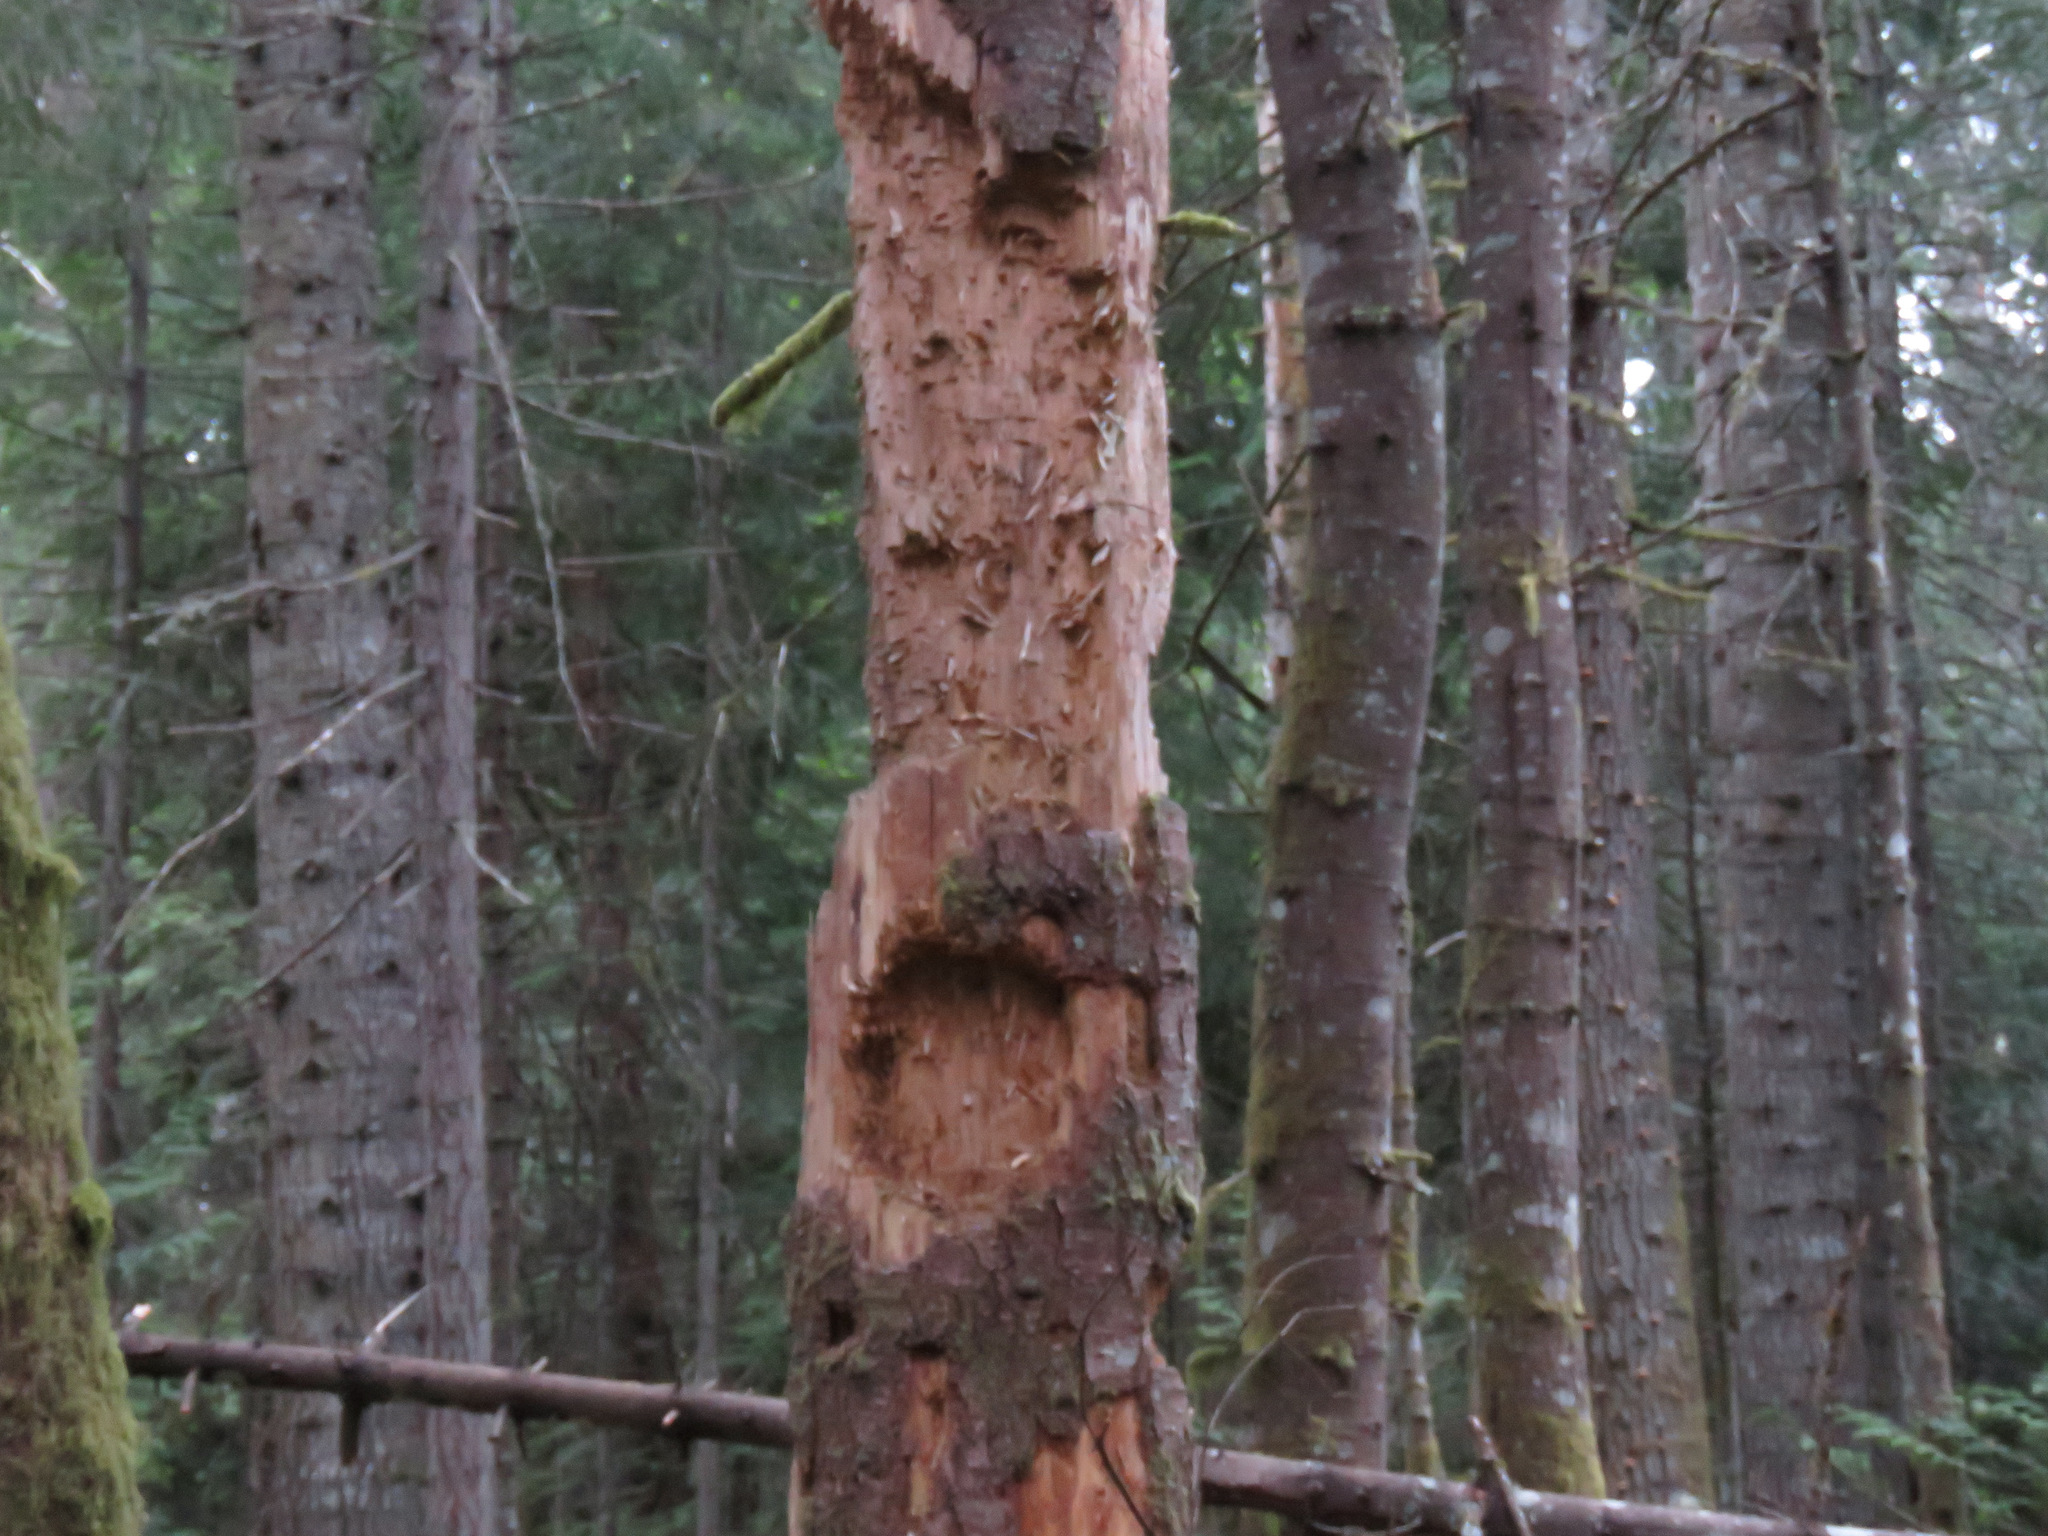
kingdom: Animalia
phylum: Chordata
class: Aves
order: Piciformes
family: Picidae
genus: Dryocopus
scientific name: Dryocopus pileatus
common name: Pileated woodpecker
